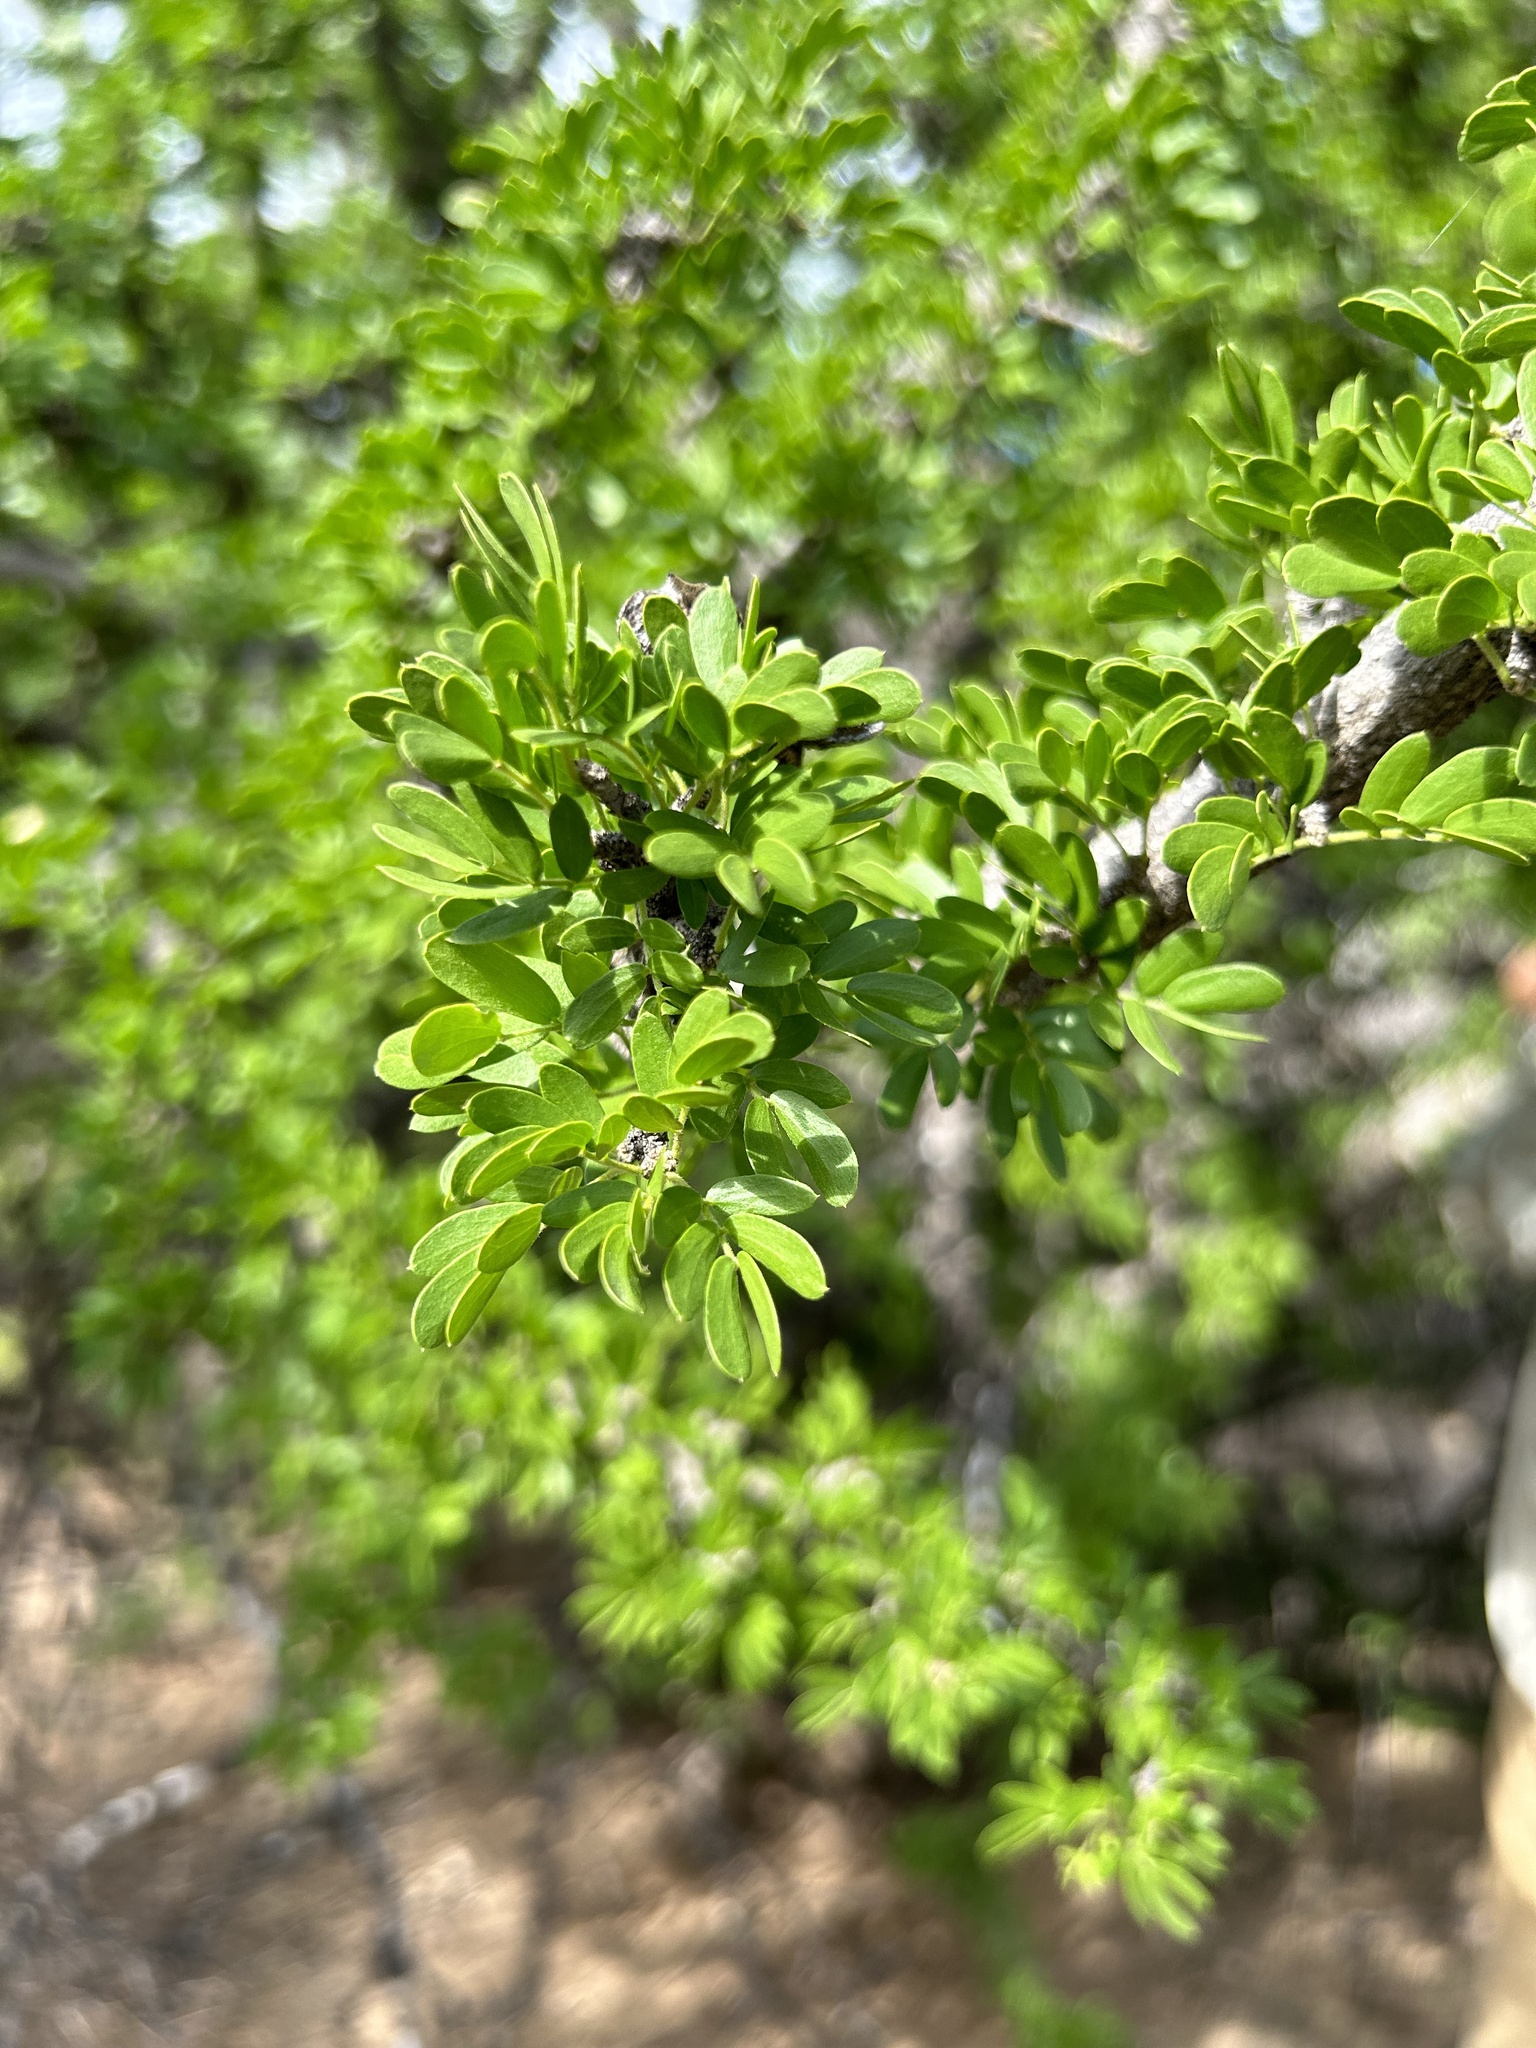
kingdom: Plantae
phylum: Tracheophyta
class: Magnoliopsida
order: Zygophyllales
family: Zygophyllaceae
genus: Guaiacum
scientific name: Guaiacum coulteri
